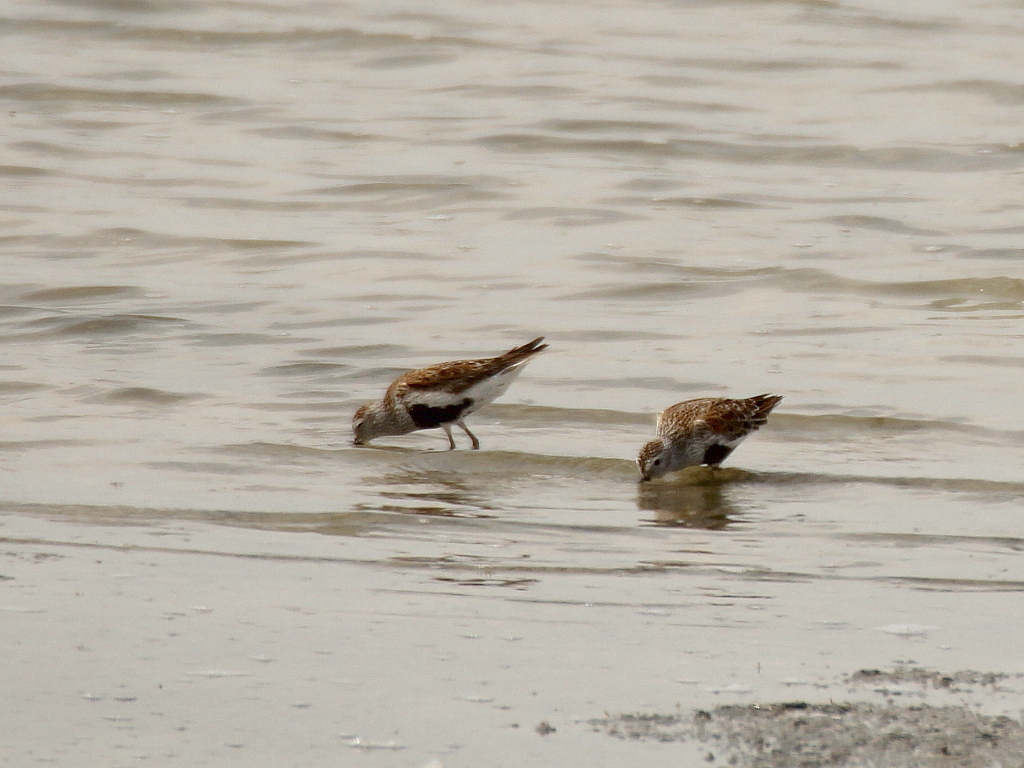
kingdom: Animalia
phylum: Chordata
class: Aves
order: Charadriiformes
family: Scolopacidae
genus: Calidris
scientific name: Calidris alpina
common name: Dunlin
